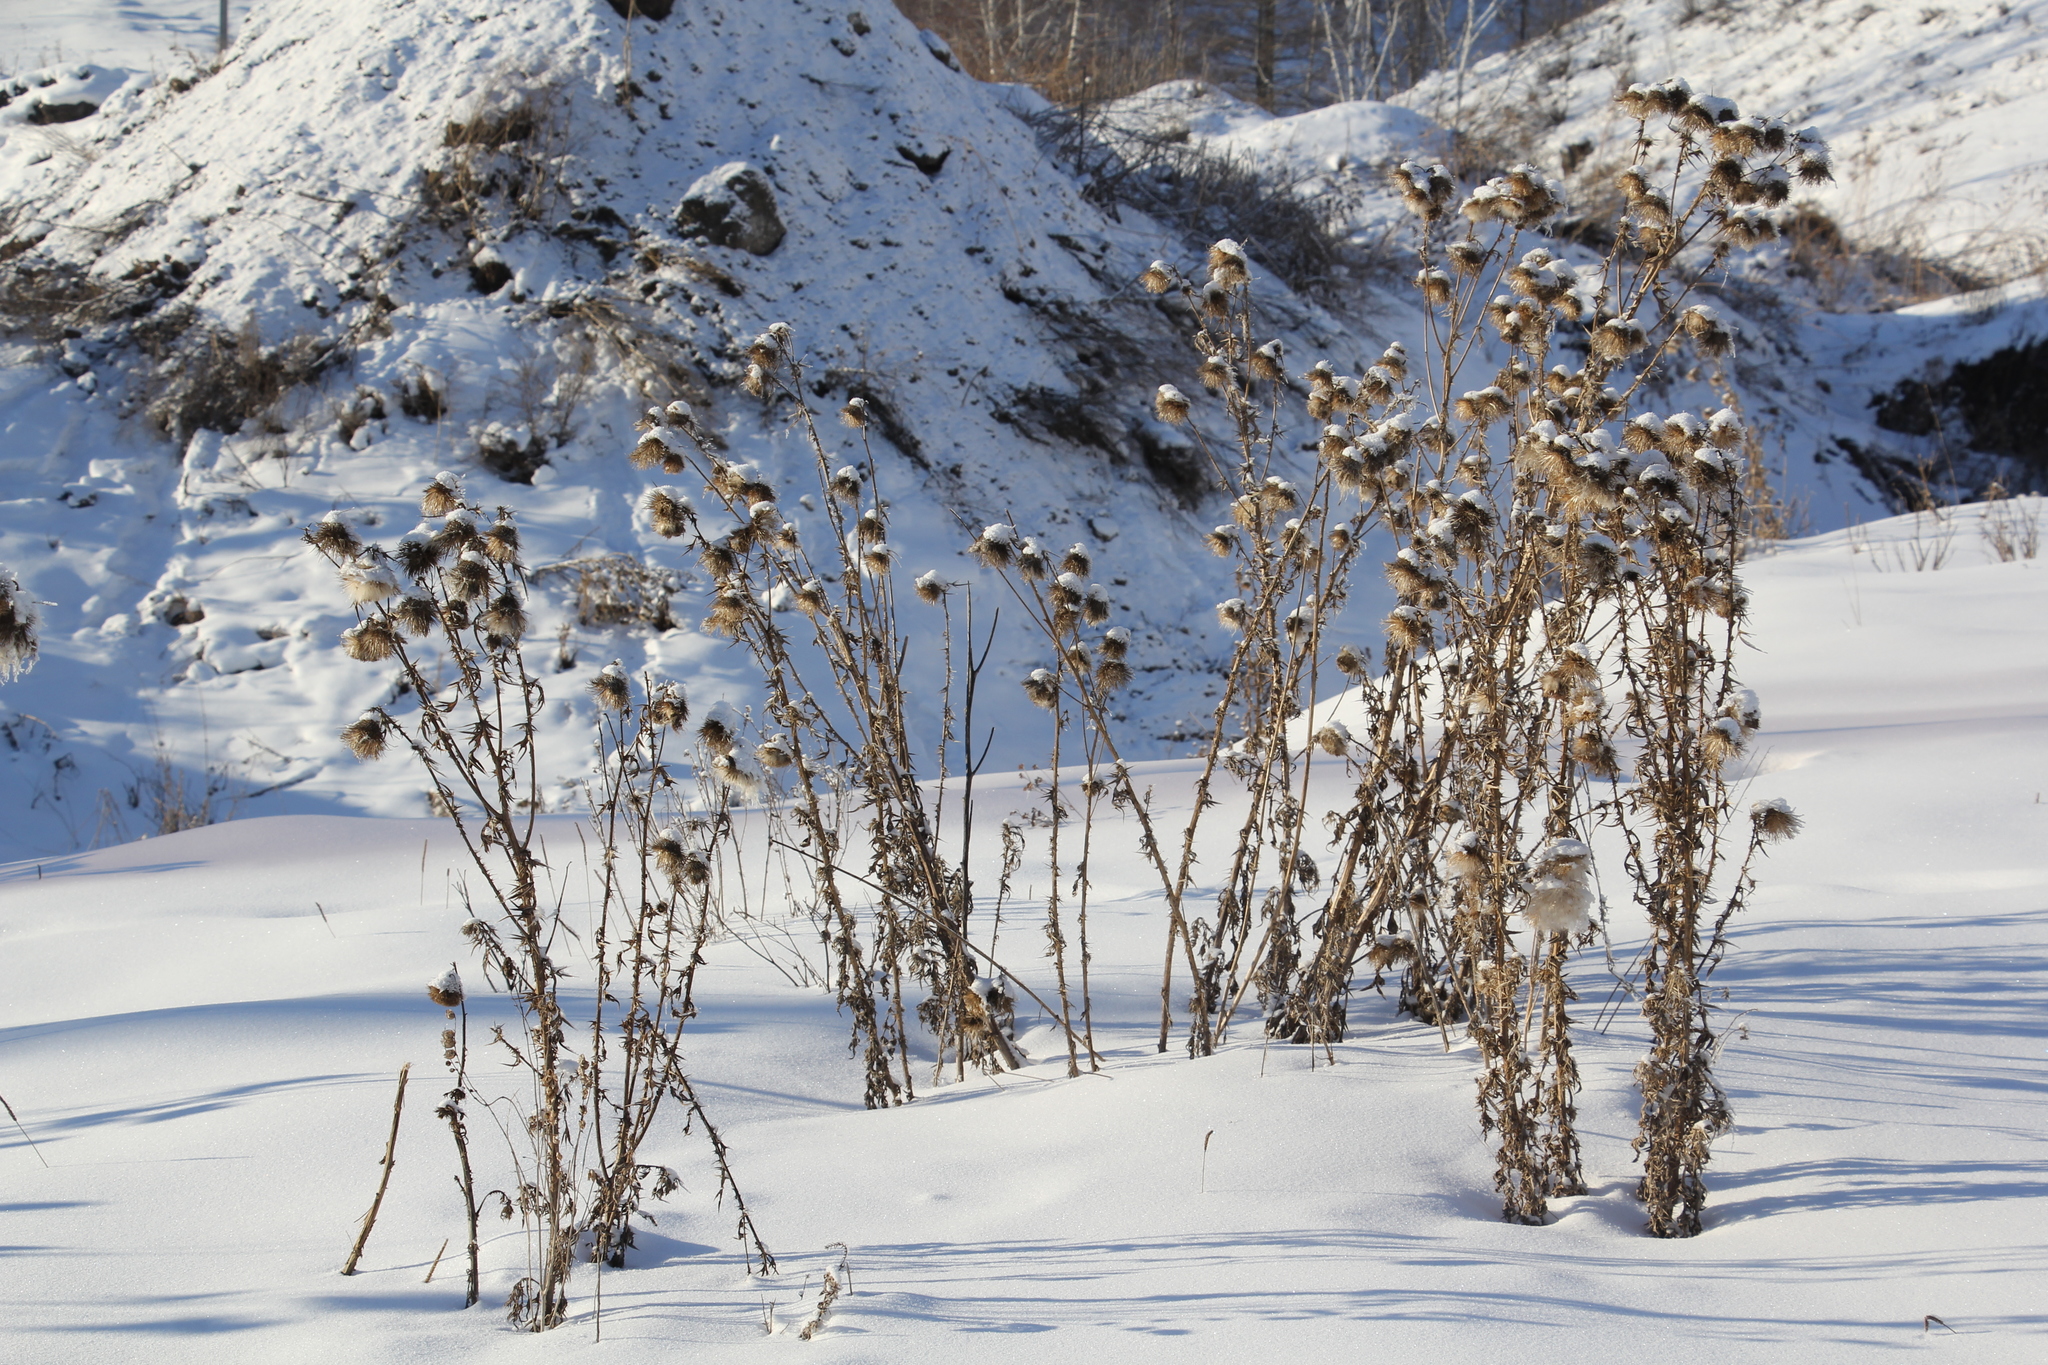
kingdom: Plantae
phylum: Tracheophyta
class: Magnoliopsida
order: Asterales
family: Asteraceae
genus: Cirsium
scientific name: Cirsium vulgare
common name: Bull thistle
